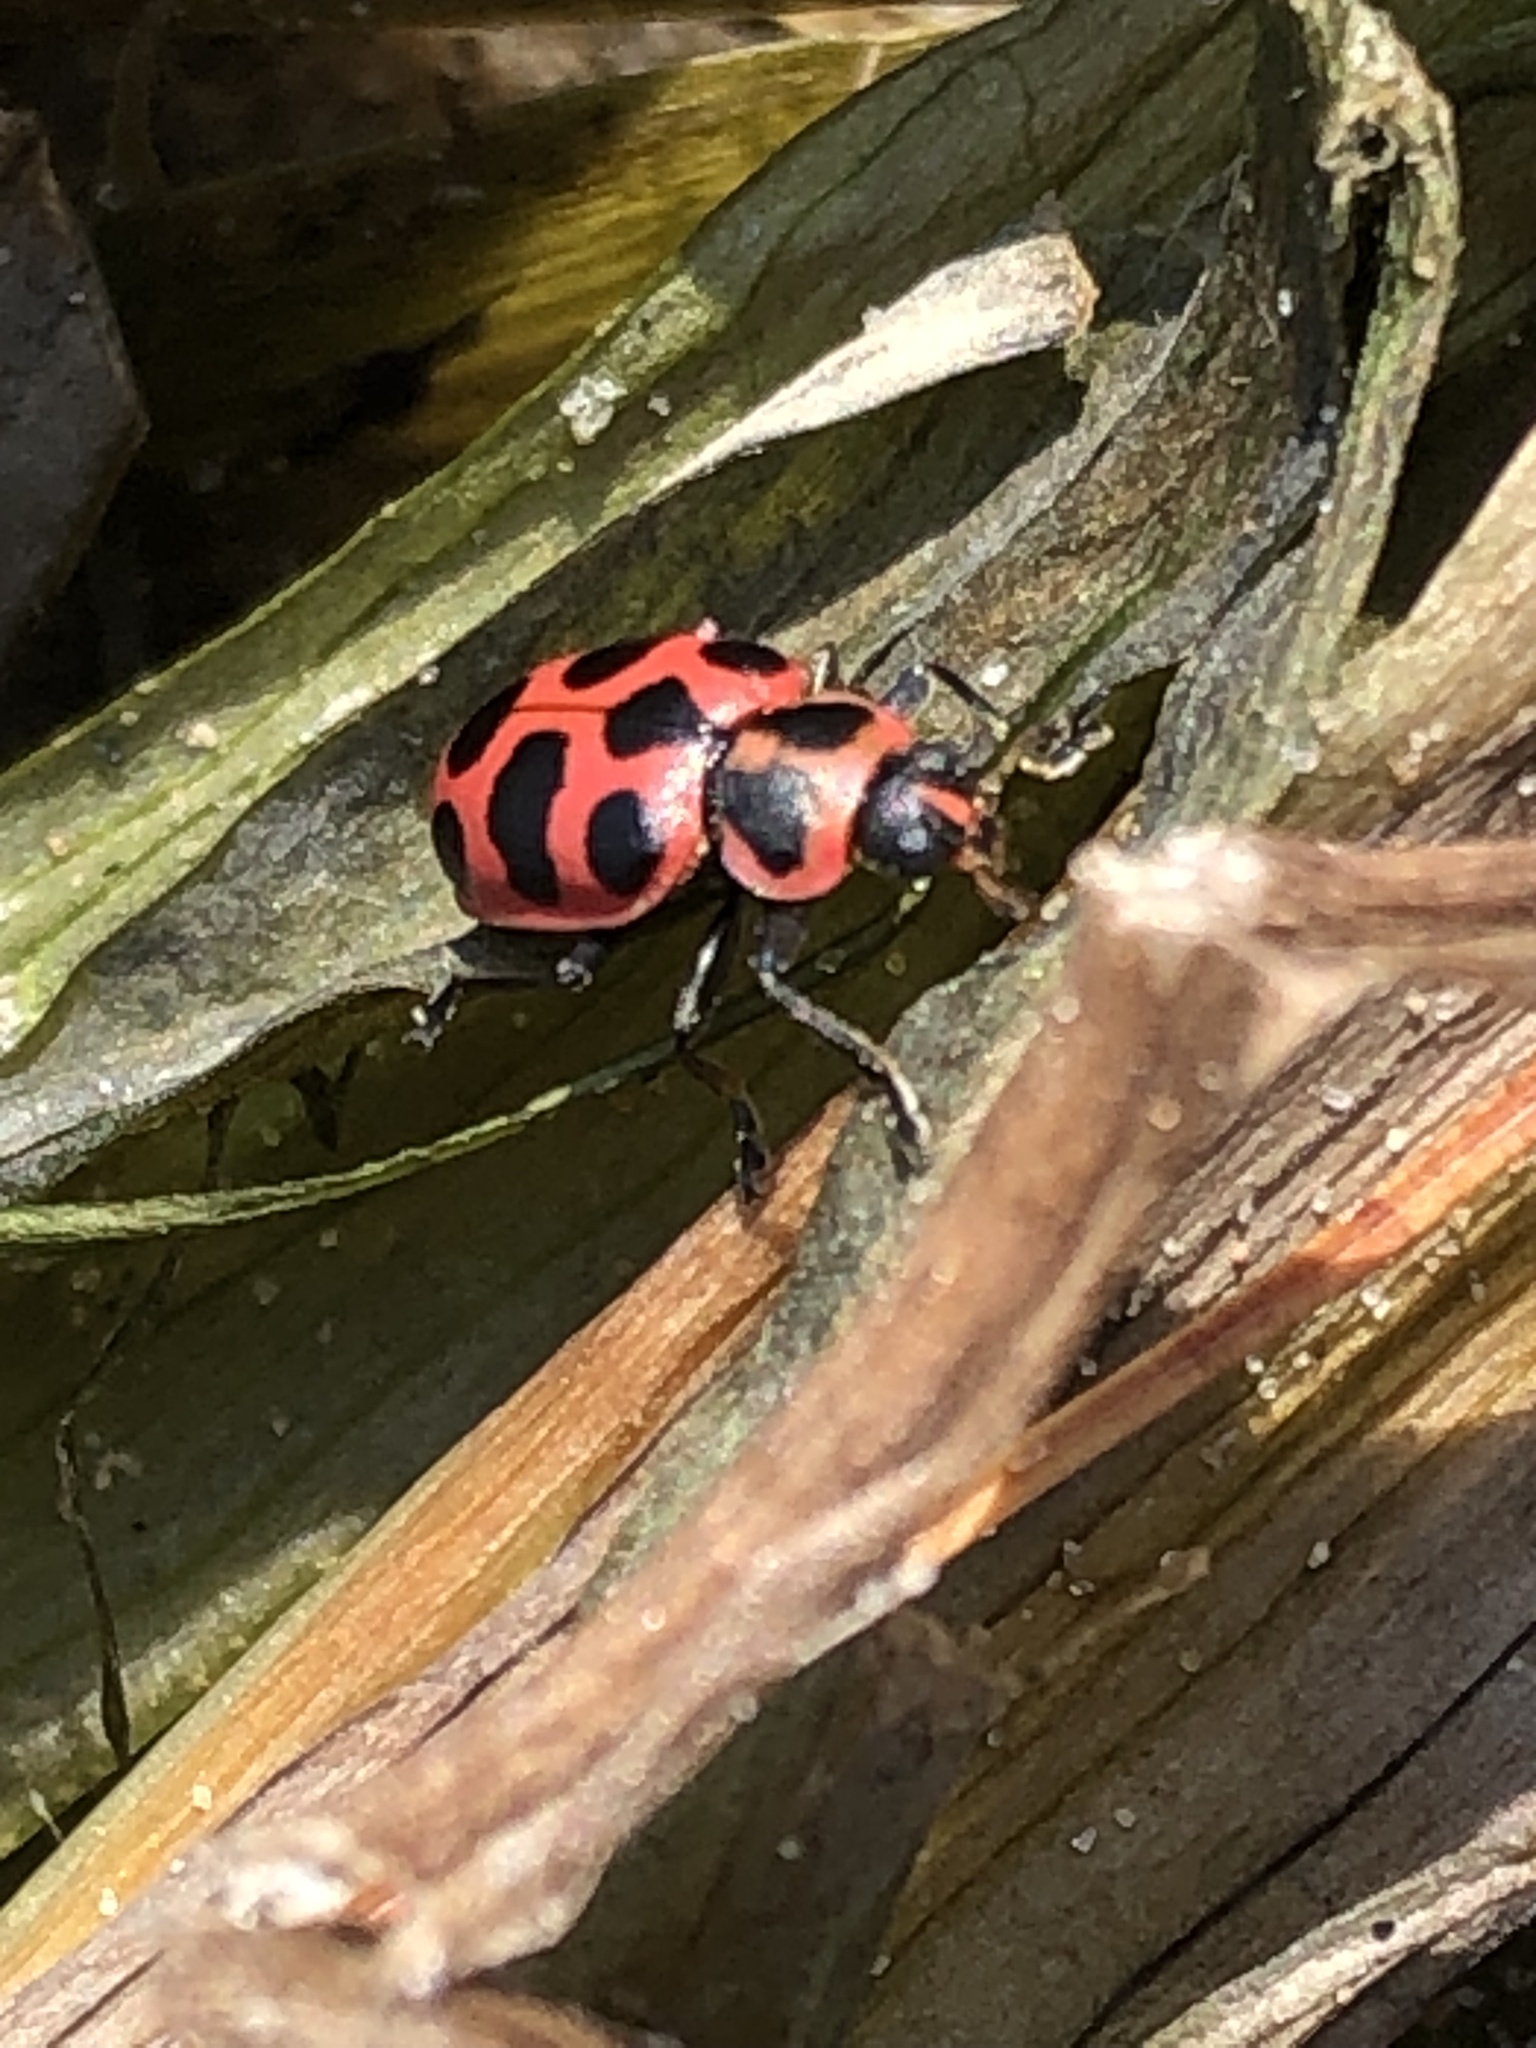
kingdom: Animalia
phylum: Arthropoda
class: Insecta
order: Coleoptera
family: Coccinellidae
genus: Coleomegilla
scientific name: Coleomegilla maculata
